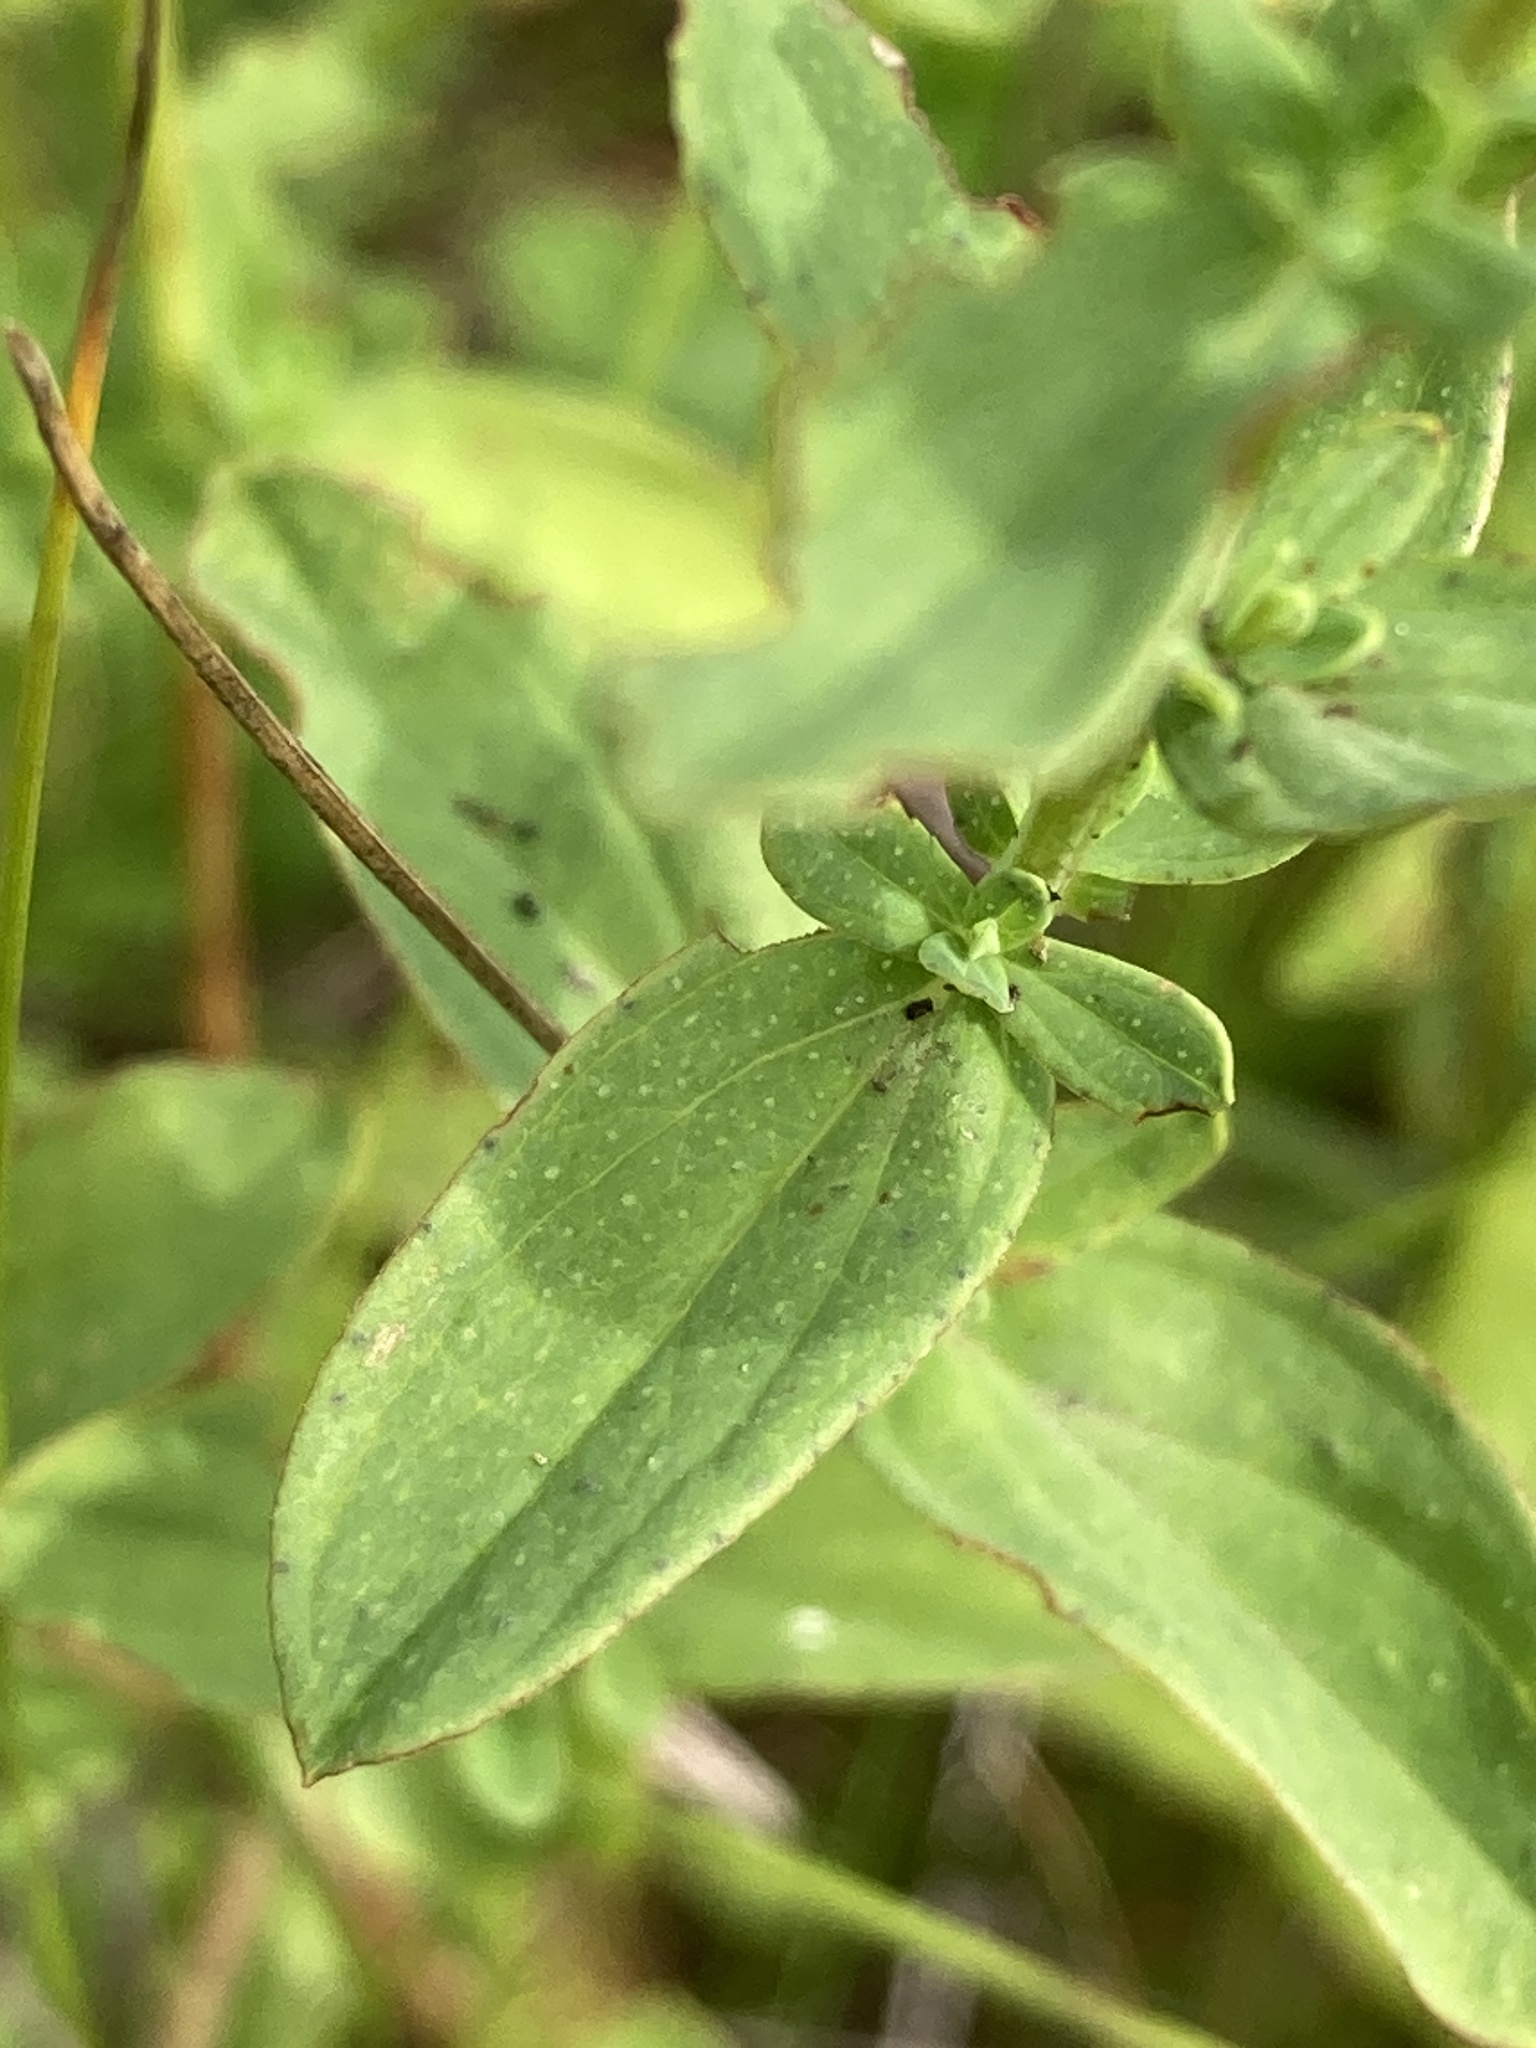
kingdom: Plantae
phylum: Tracheophyta
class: Magnoliopsida
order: Malpighiales
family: Hypericaceae
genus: Hypericum
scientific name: Hypericum perforatum
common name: Common st. johnswort
